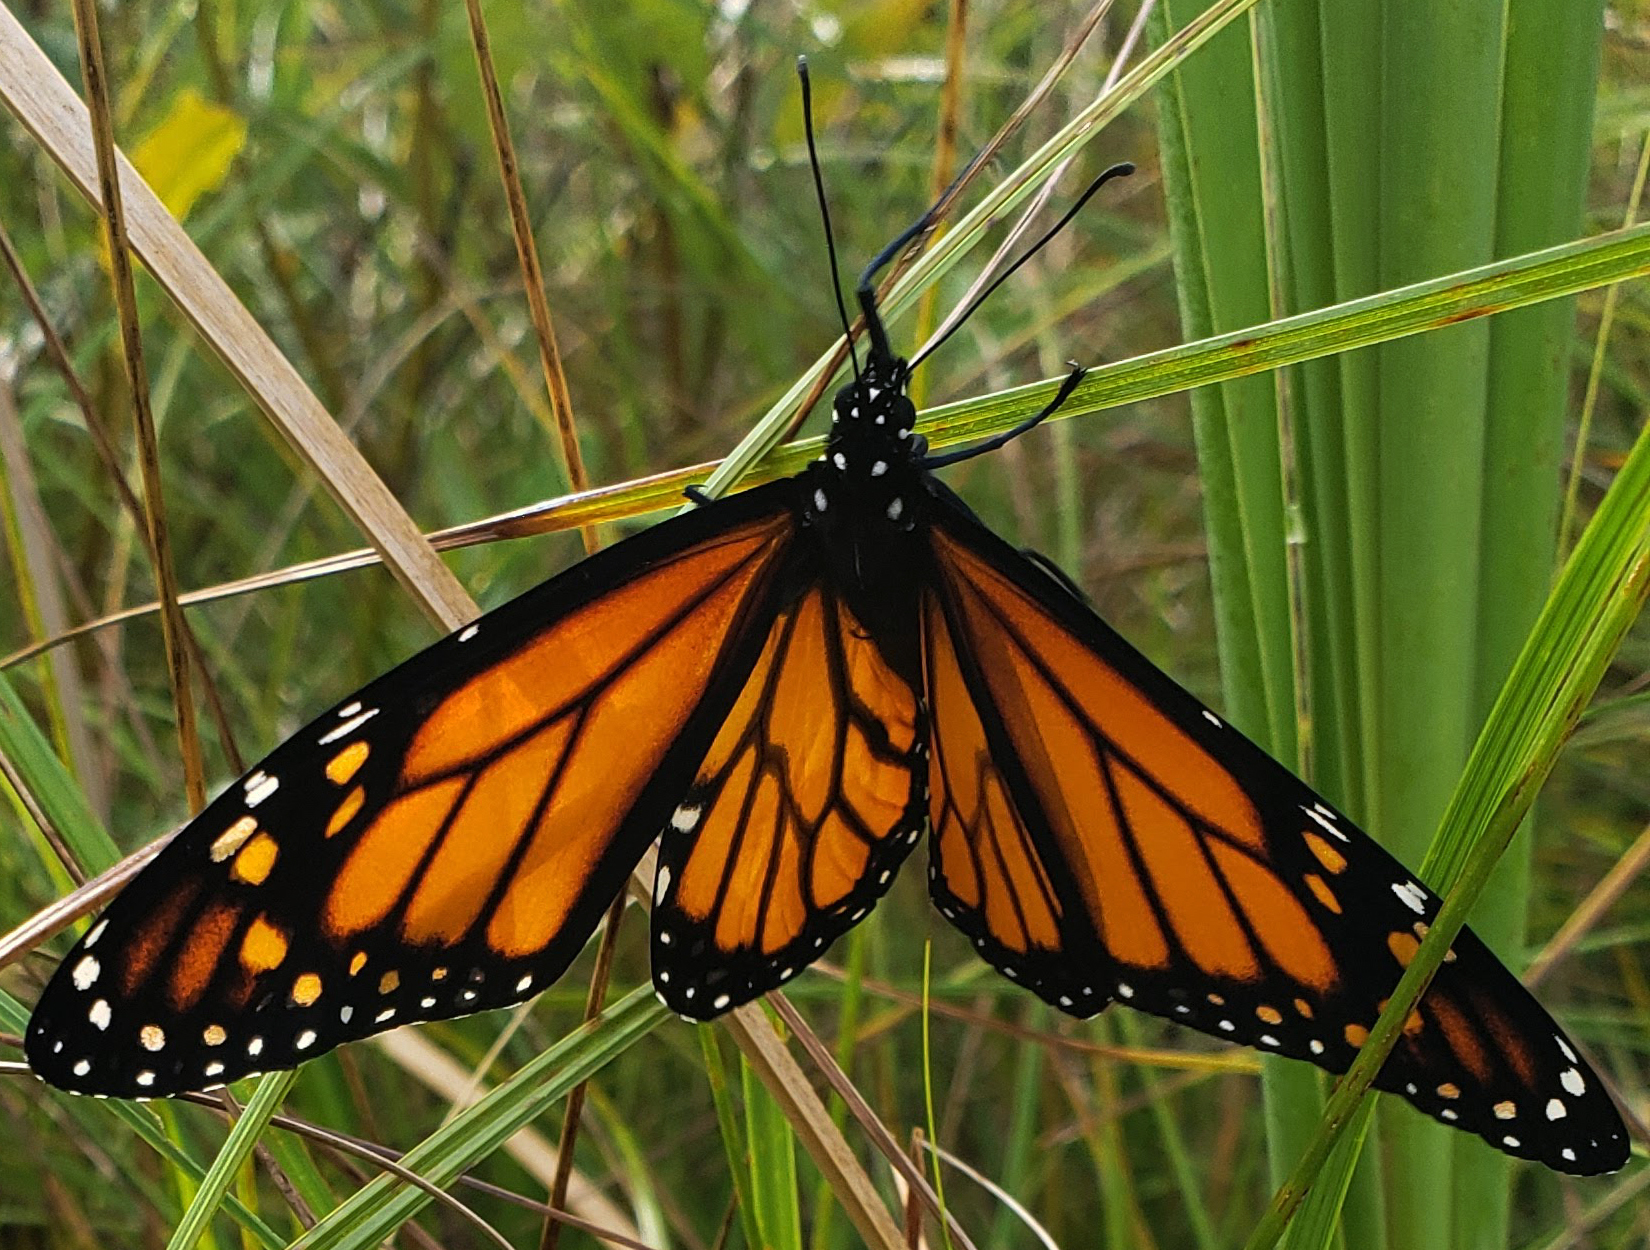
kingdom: Animalia
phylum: Arthropoda
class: Insecta
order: Lepidoptera
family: Nymphalidae
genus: Danaus
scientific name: Danaus plexippus
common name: Monarch
